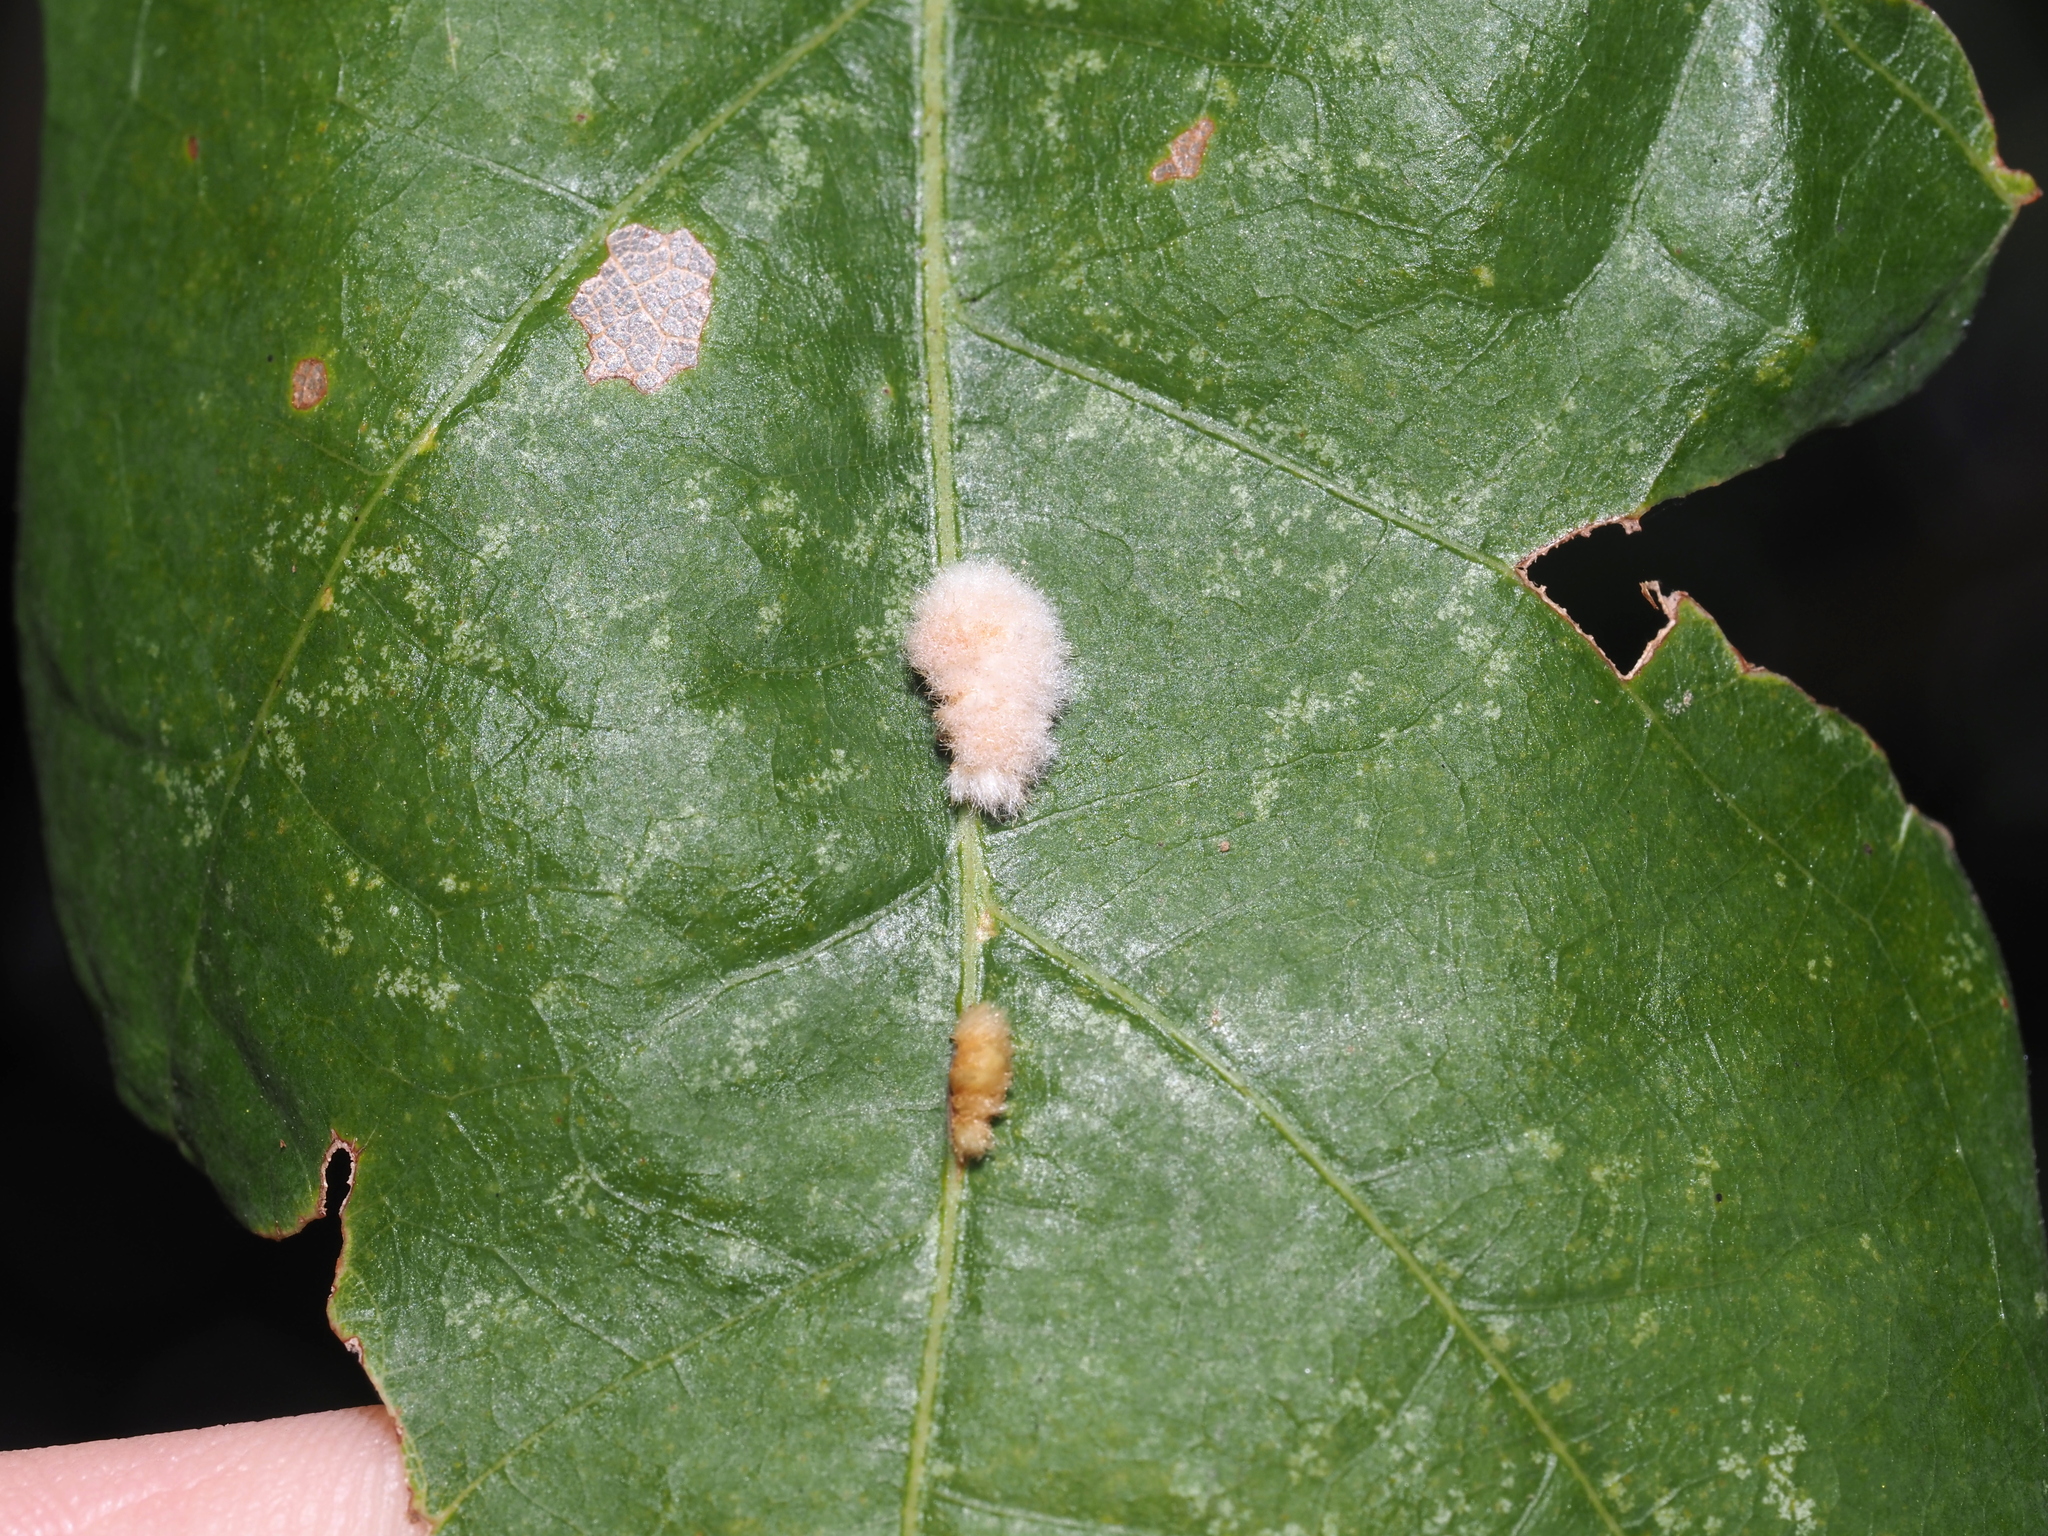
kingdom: Animalia
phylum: Arthropoda
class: Insecta
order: Hymenoptera
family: Cynipidae
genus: Andricus
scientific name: Andricus quercusflocci
